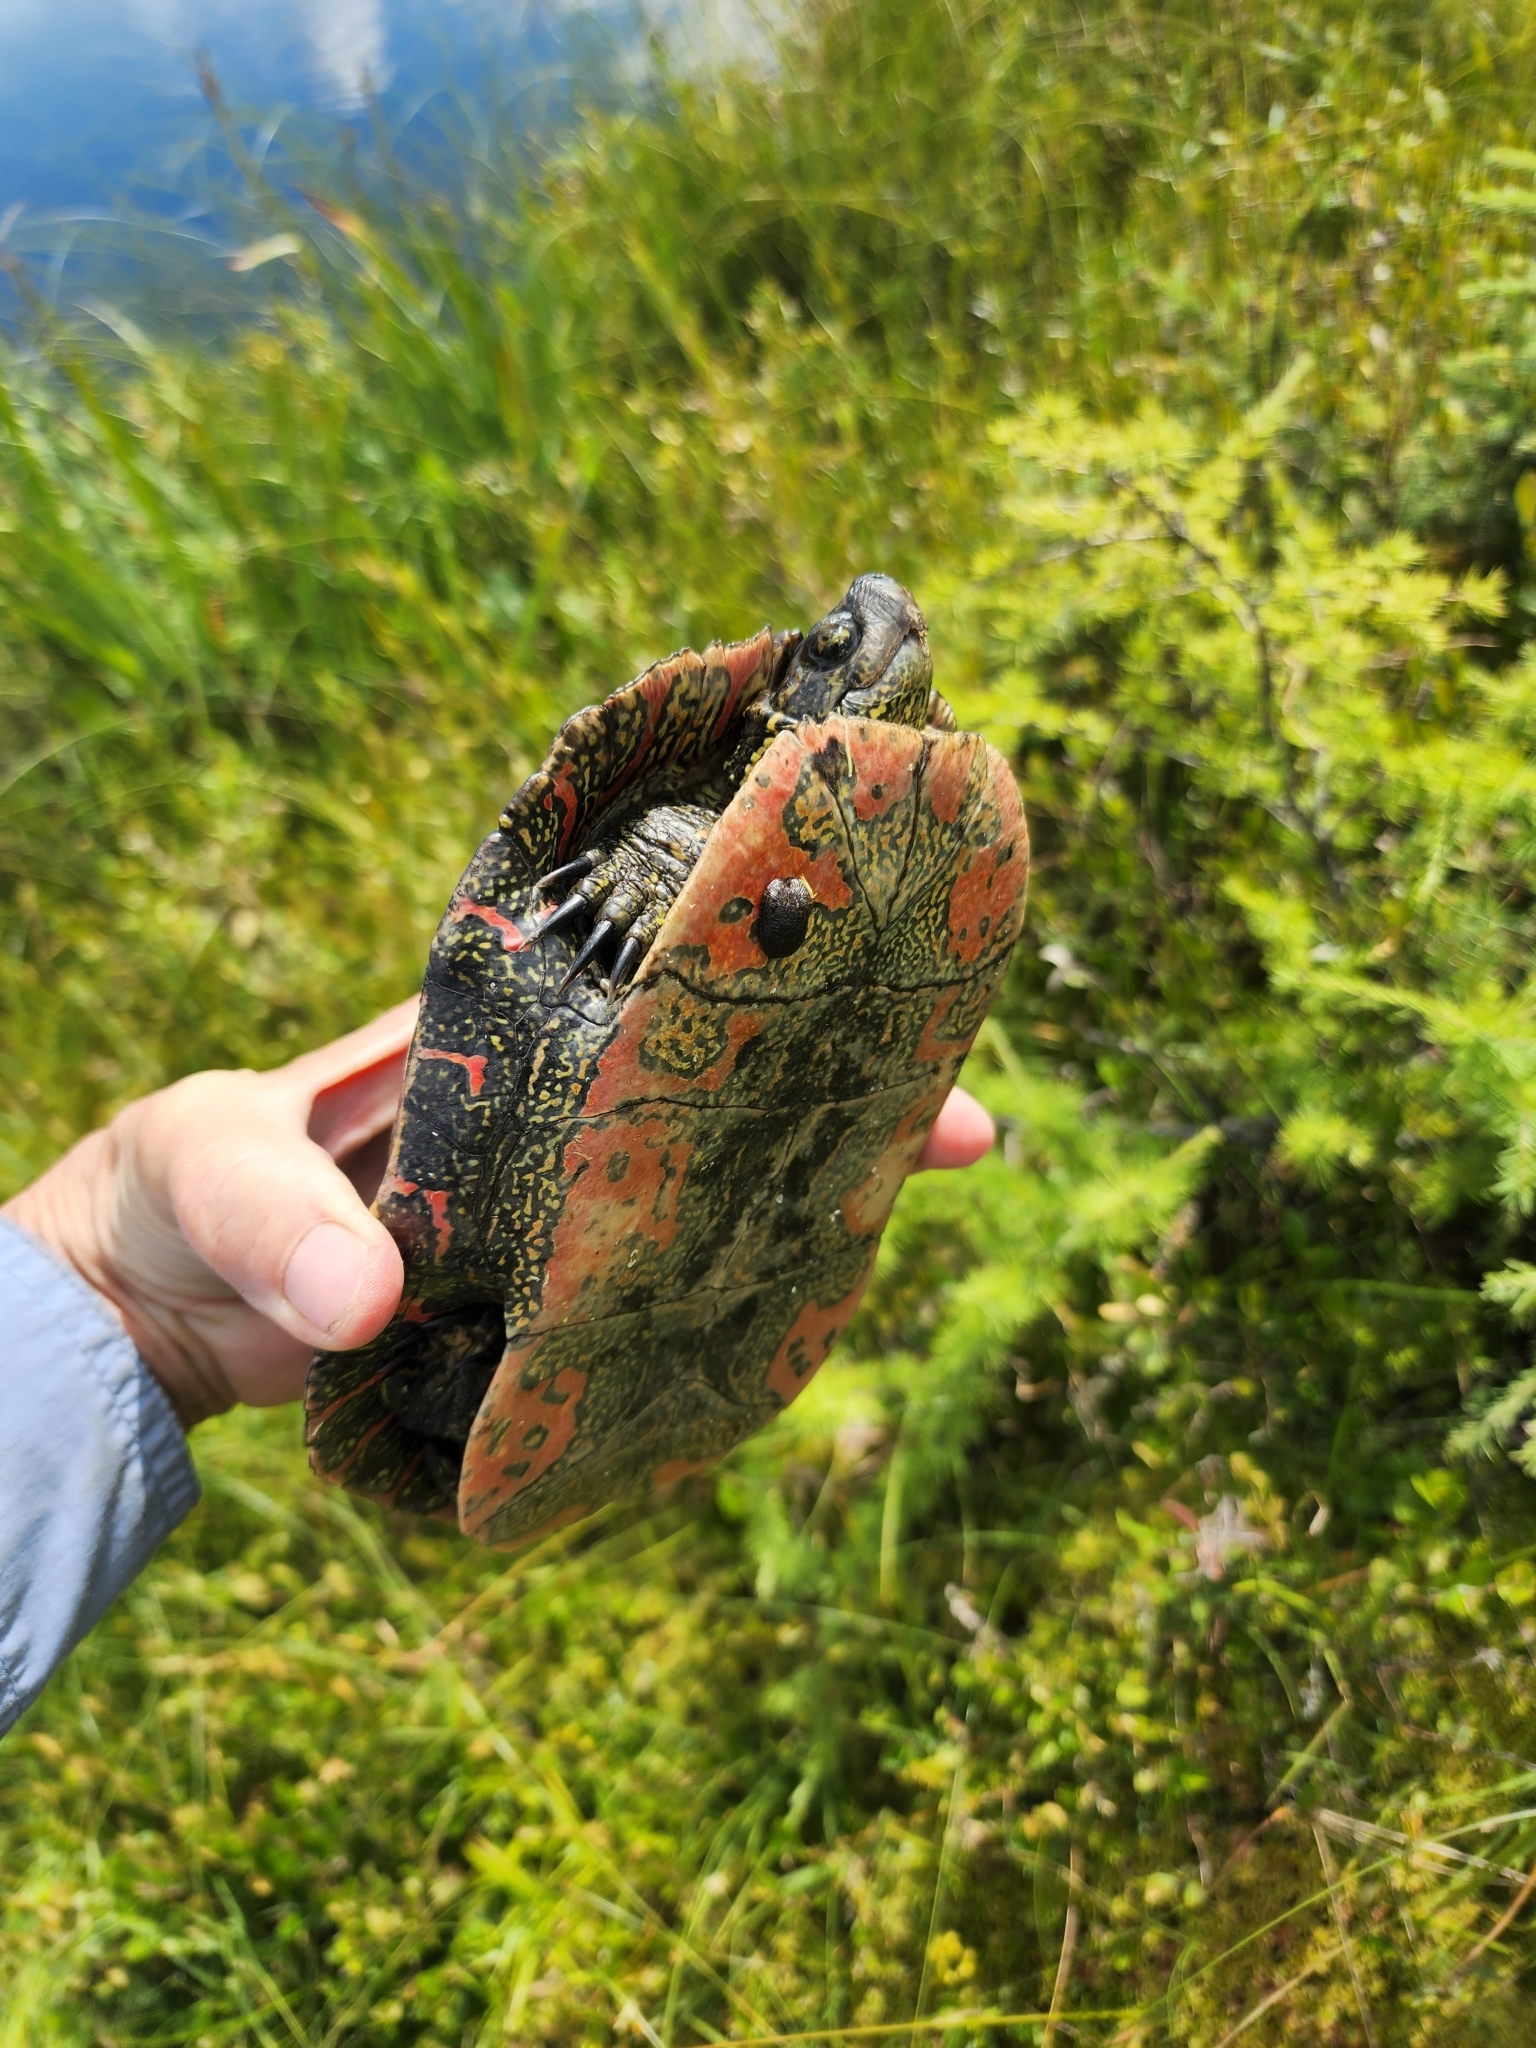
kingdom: Animalia
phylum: Chordata
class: Testudines
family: Emydidae
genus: Chrysemys
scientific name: Chrysemys picta
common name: Painted turtle
